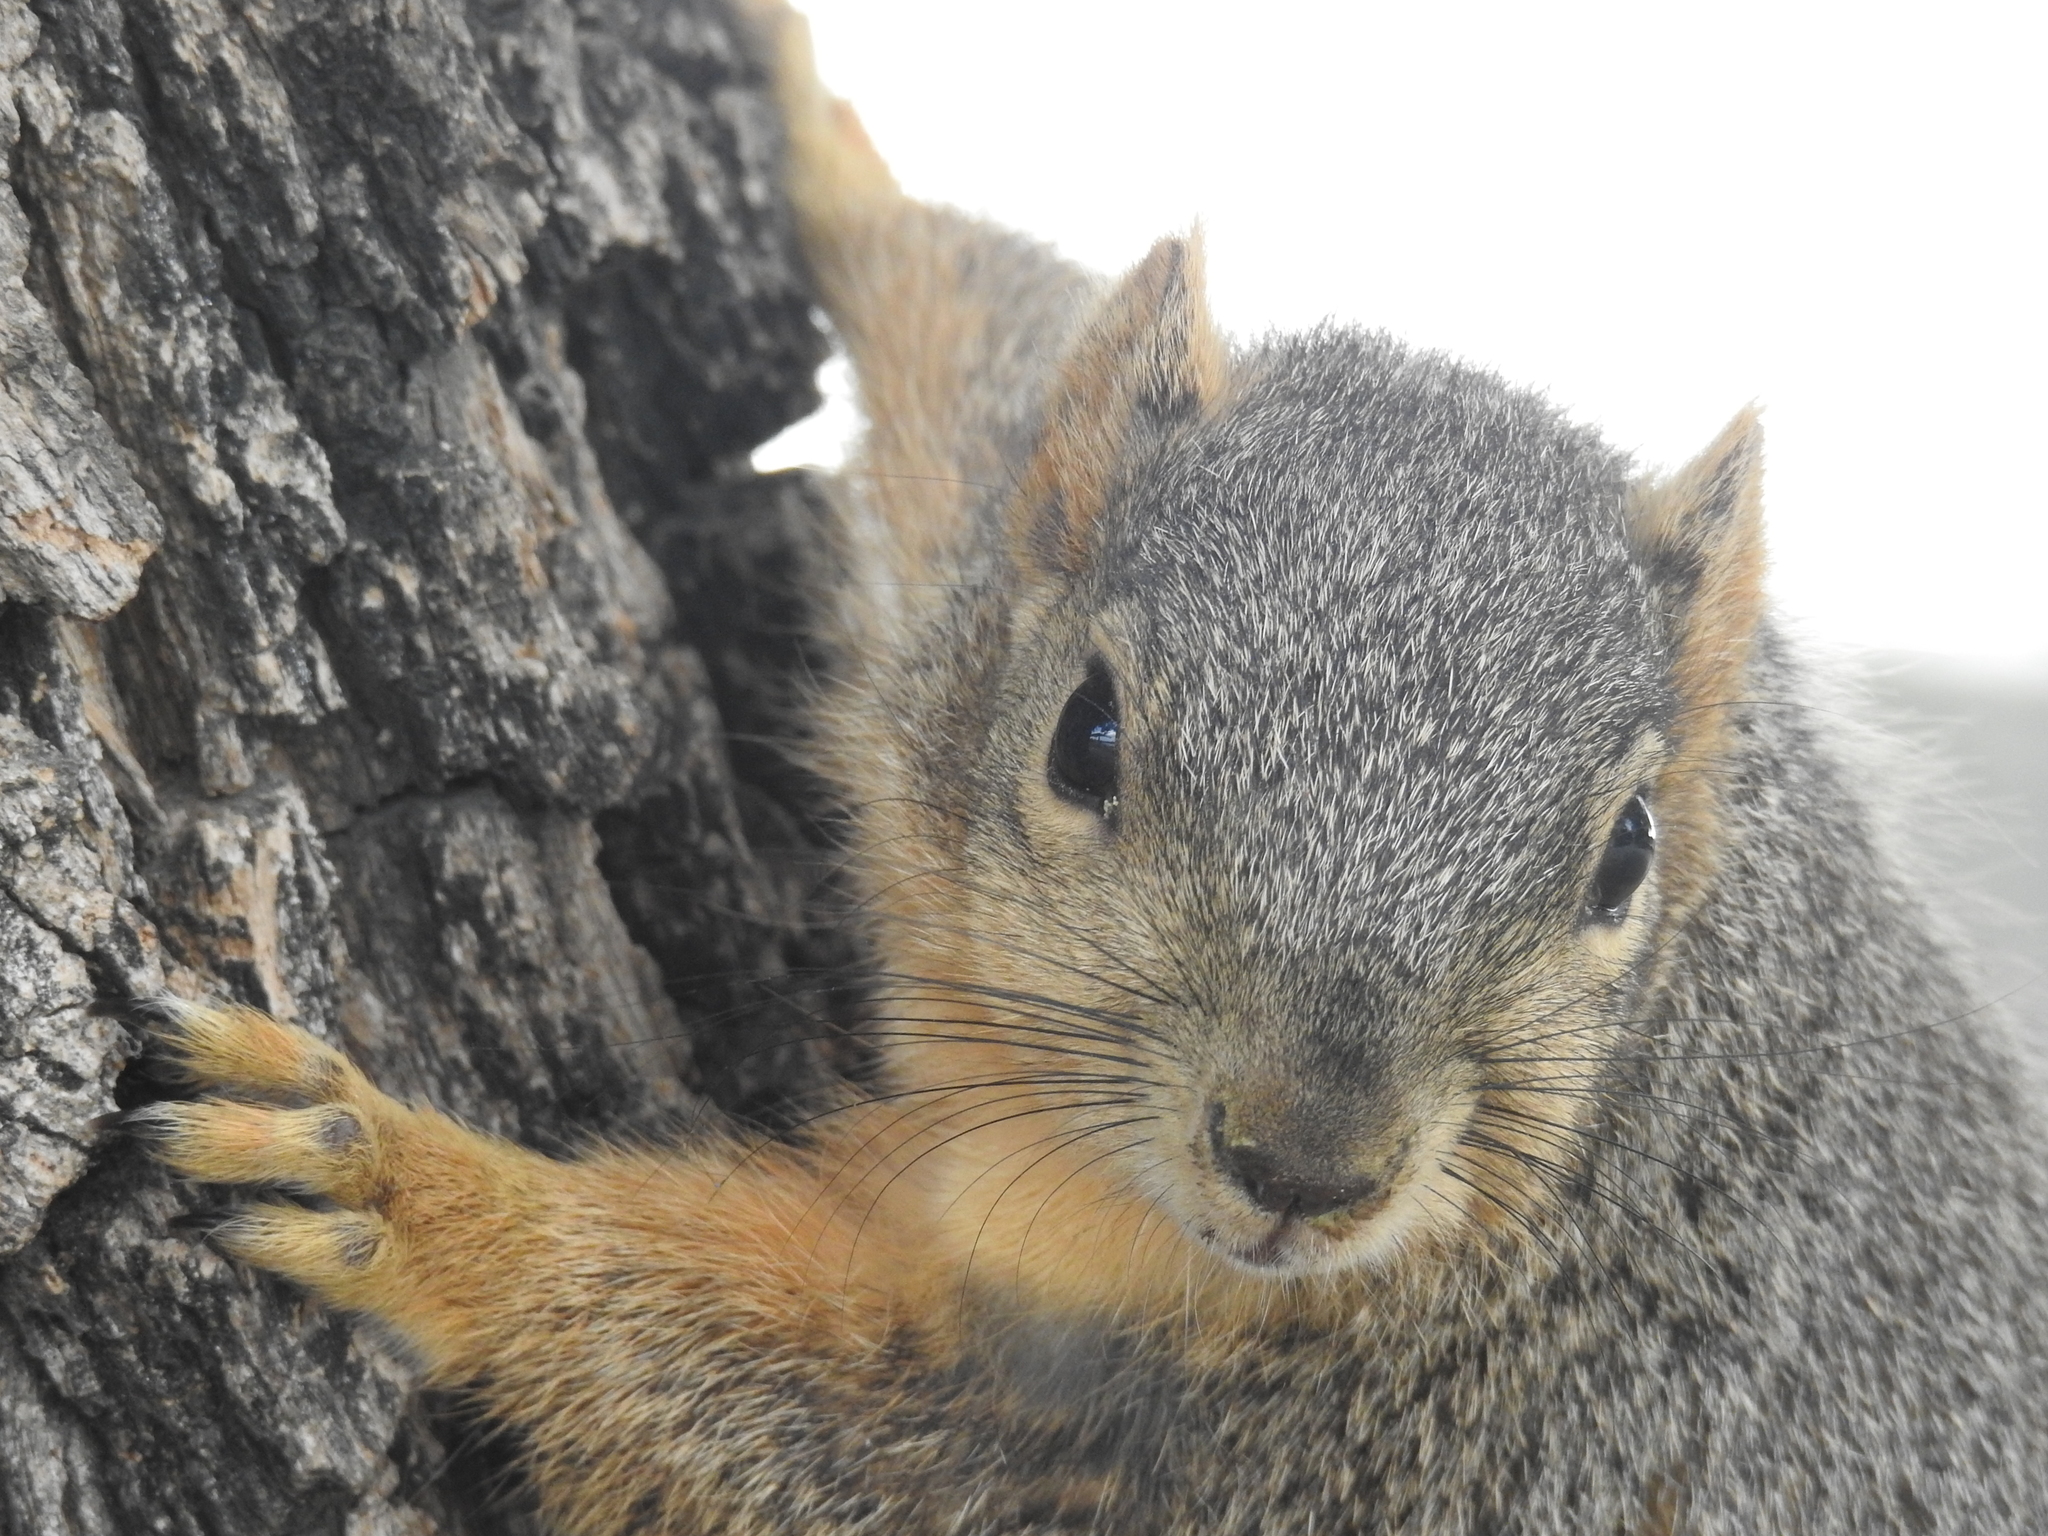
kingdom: Animalia
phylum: Chordata
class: Mammalia
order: Rodentia
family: Sciuridae
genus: Sciurus
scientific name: Sciurus niger
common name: Fox squirrel
